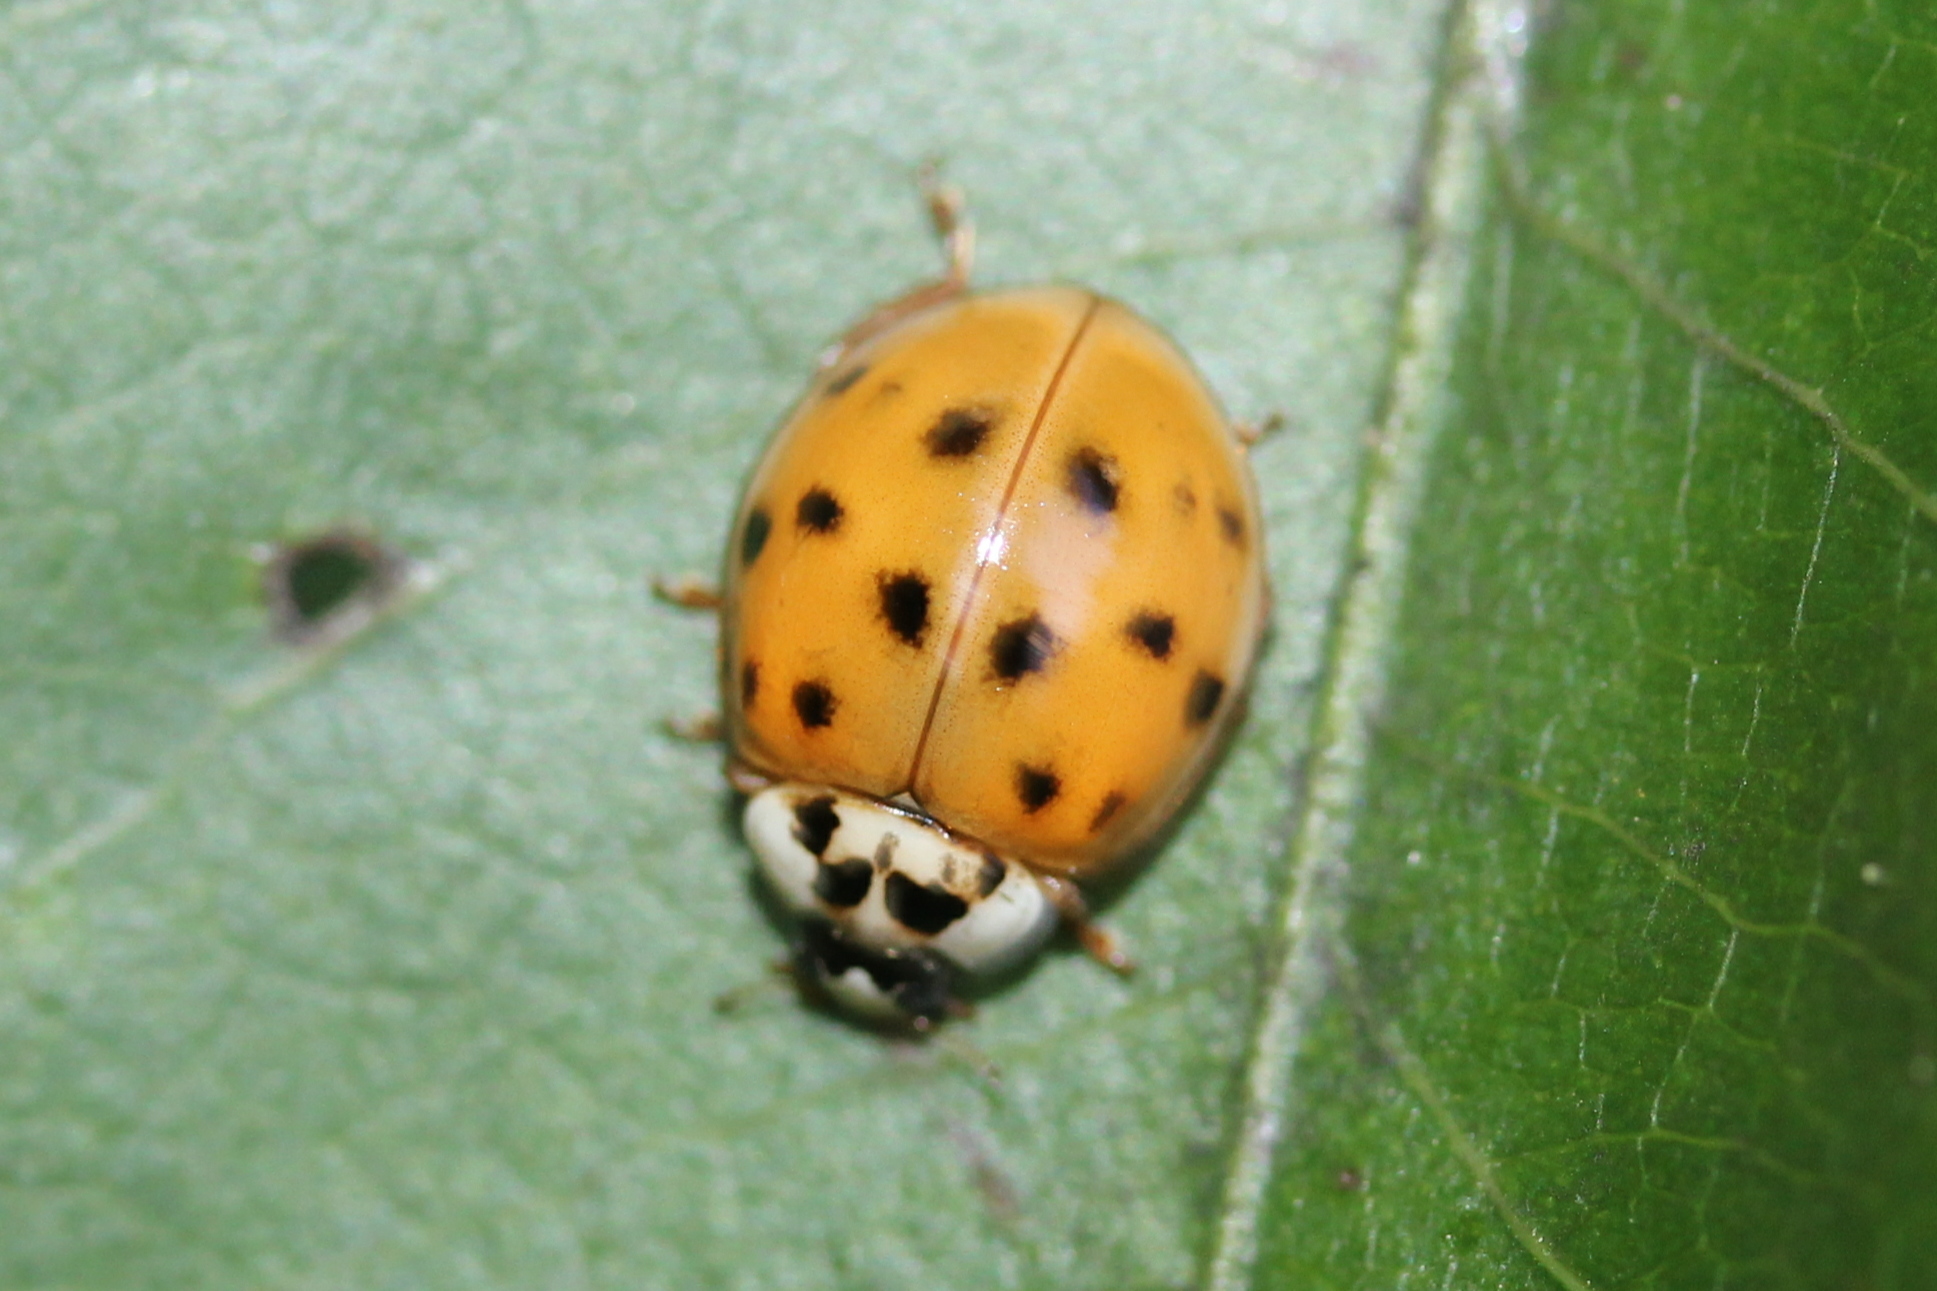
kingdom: Animalia
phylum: Arthropoda
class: Insecta
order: Coleoptera
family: Coccinellidae
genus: Harmonia
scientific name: Harmonia axyridis
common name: Harlequin ladybird
